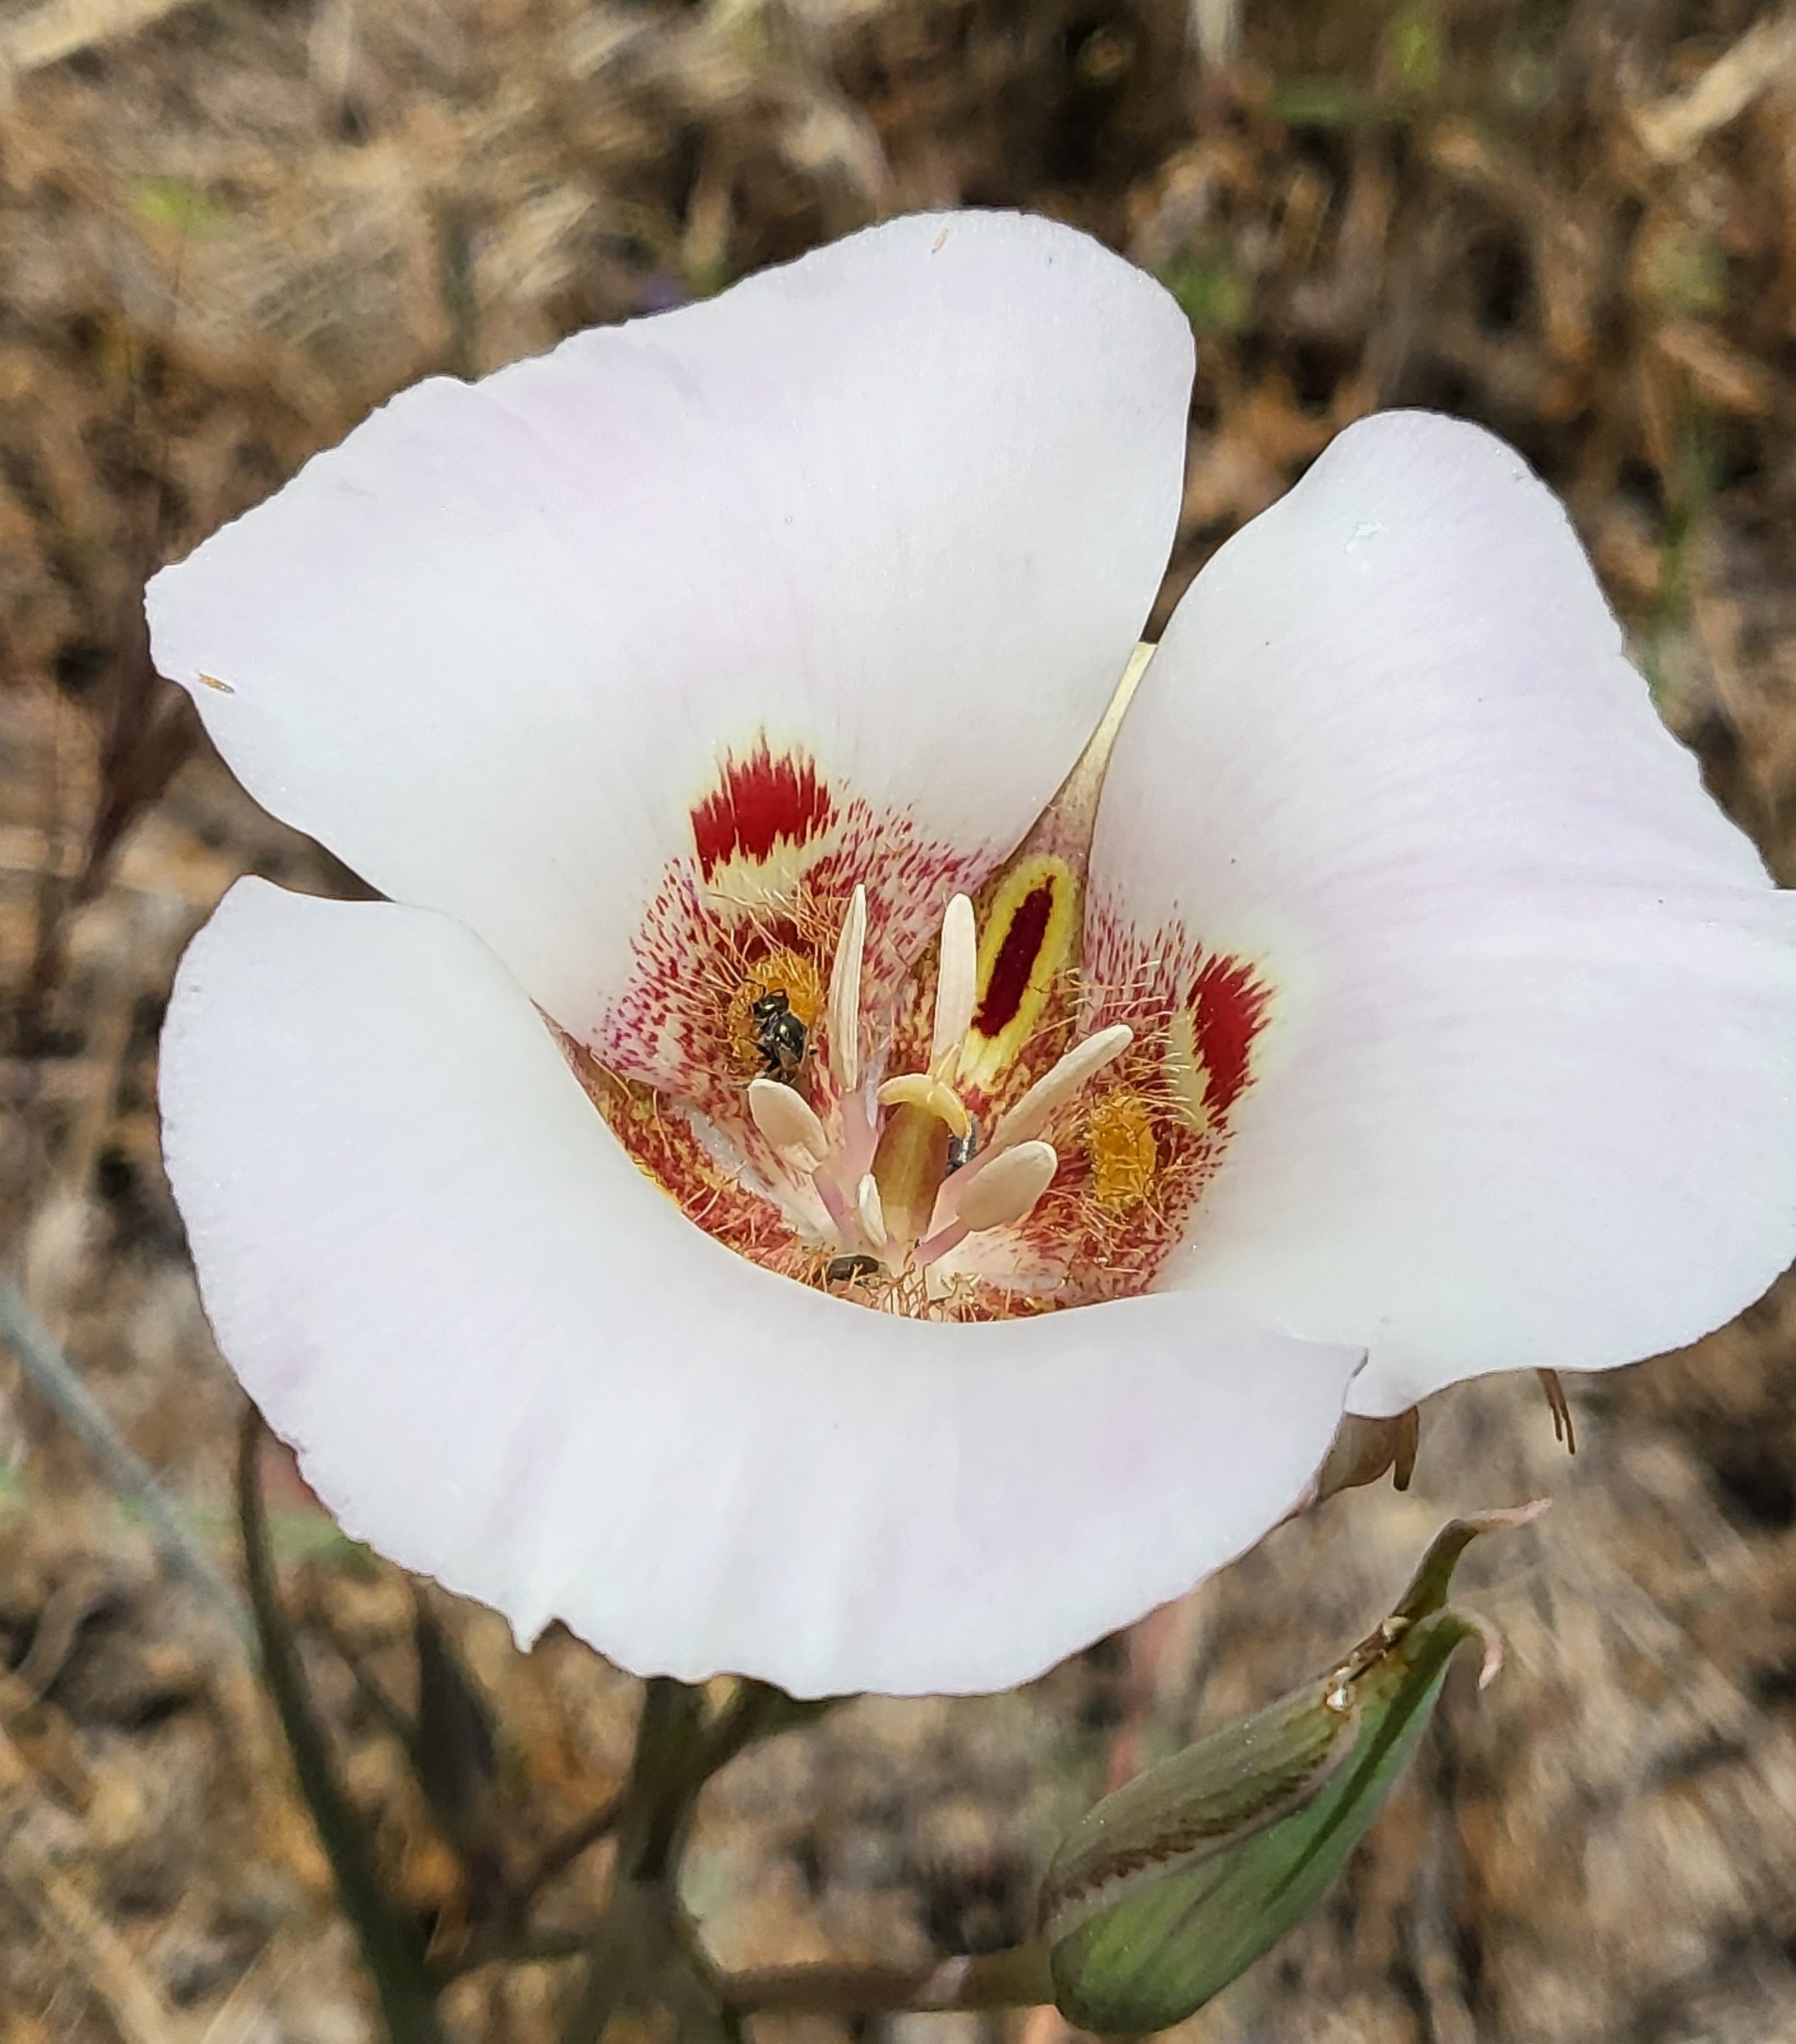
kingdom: Plantae
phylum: Tracheophyta
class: Liliopsida
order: Liliales
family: Liliaceae
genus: Calochortus
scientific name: Calochortus venustus
